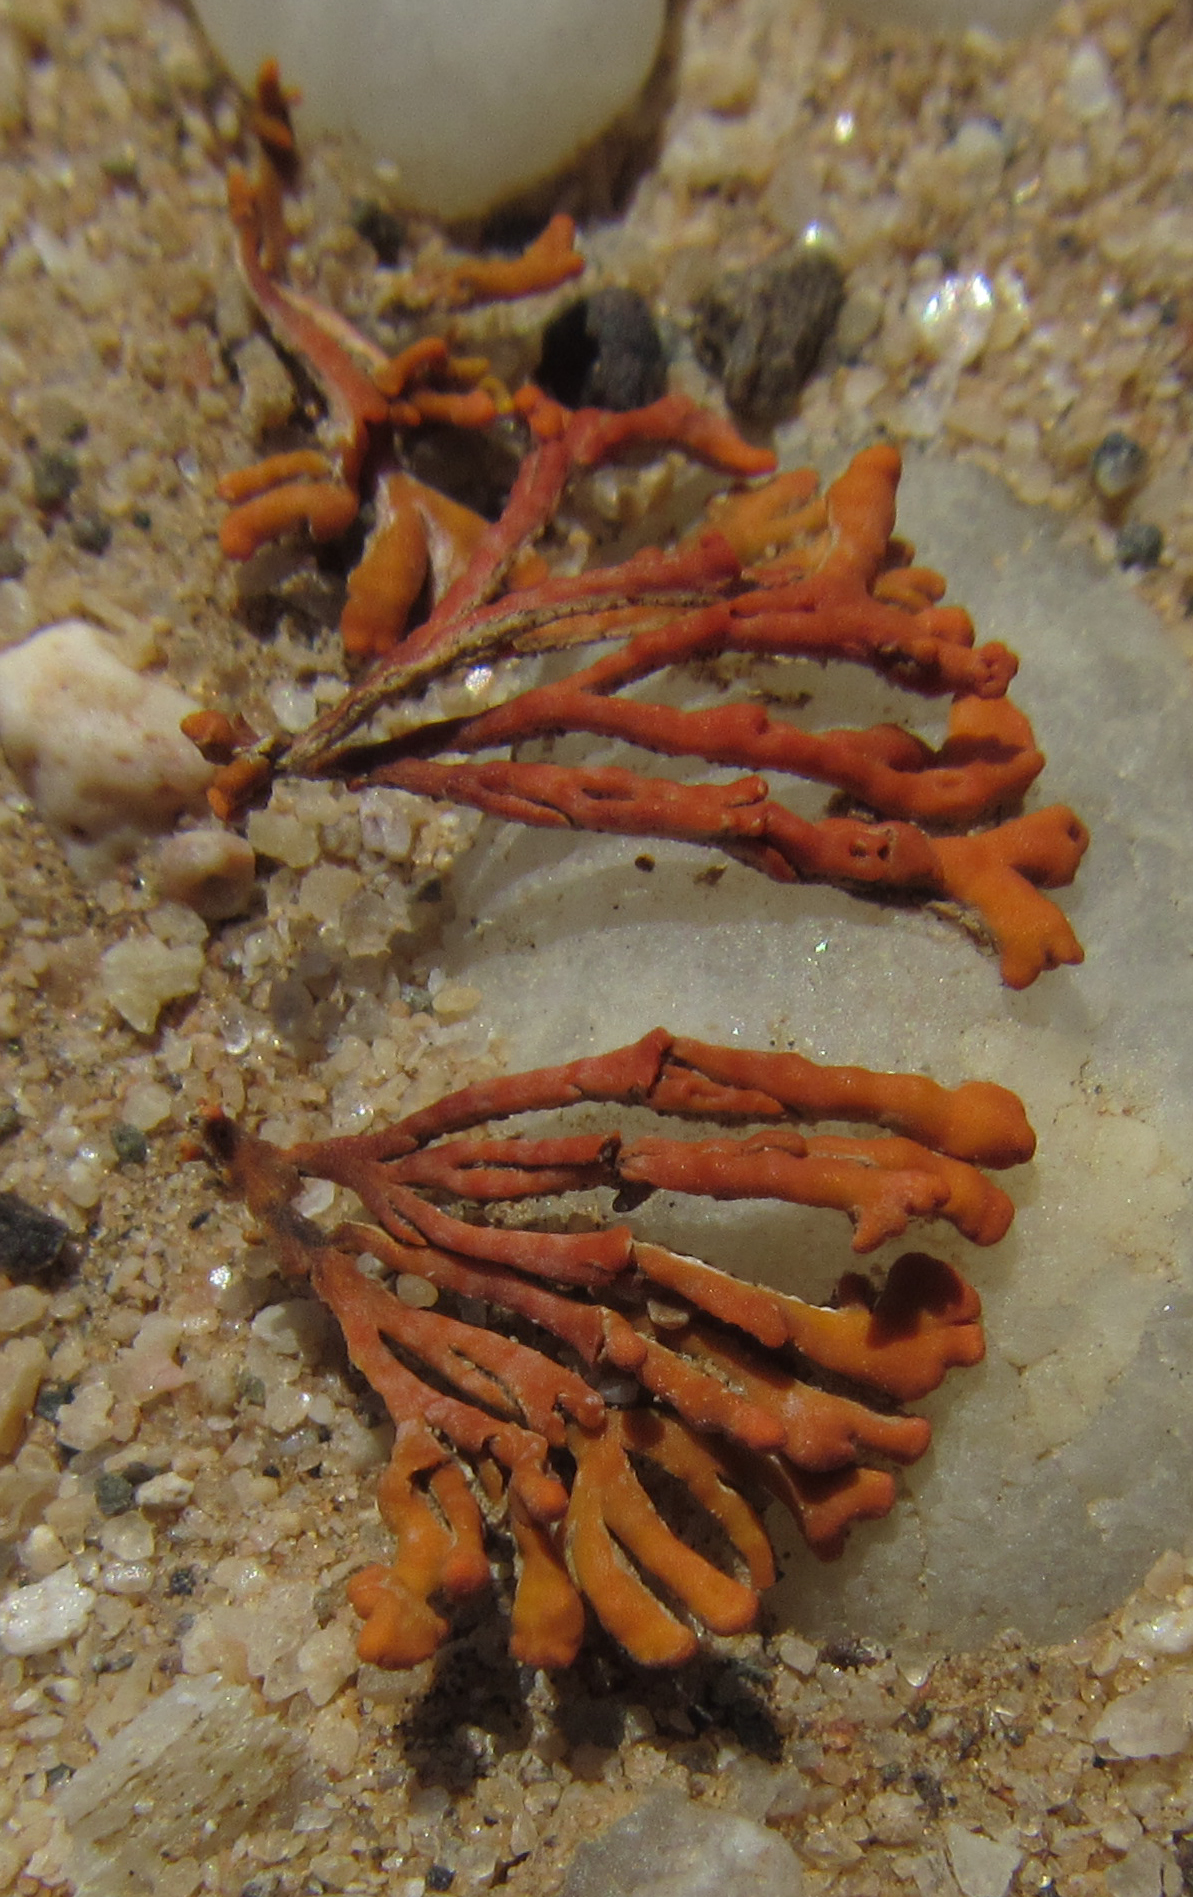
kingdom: Fungi
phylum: Ascomycota
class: Lecanoromycetes
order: Teloschistales
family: Teloschistaceae
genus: Stellarangia
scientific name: Stellarangia elegantissima
